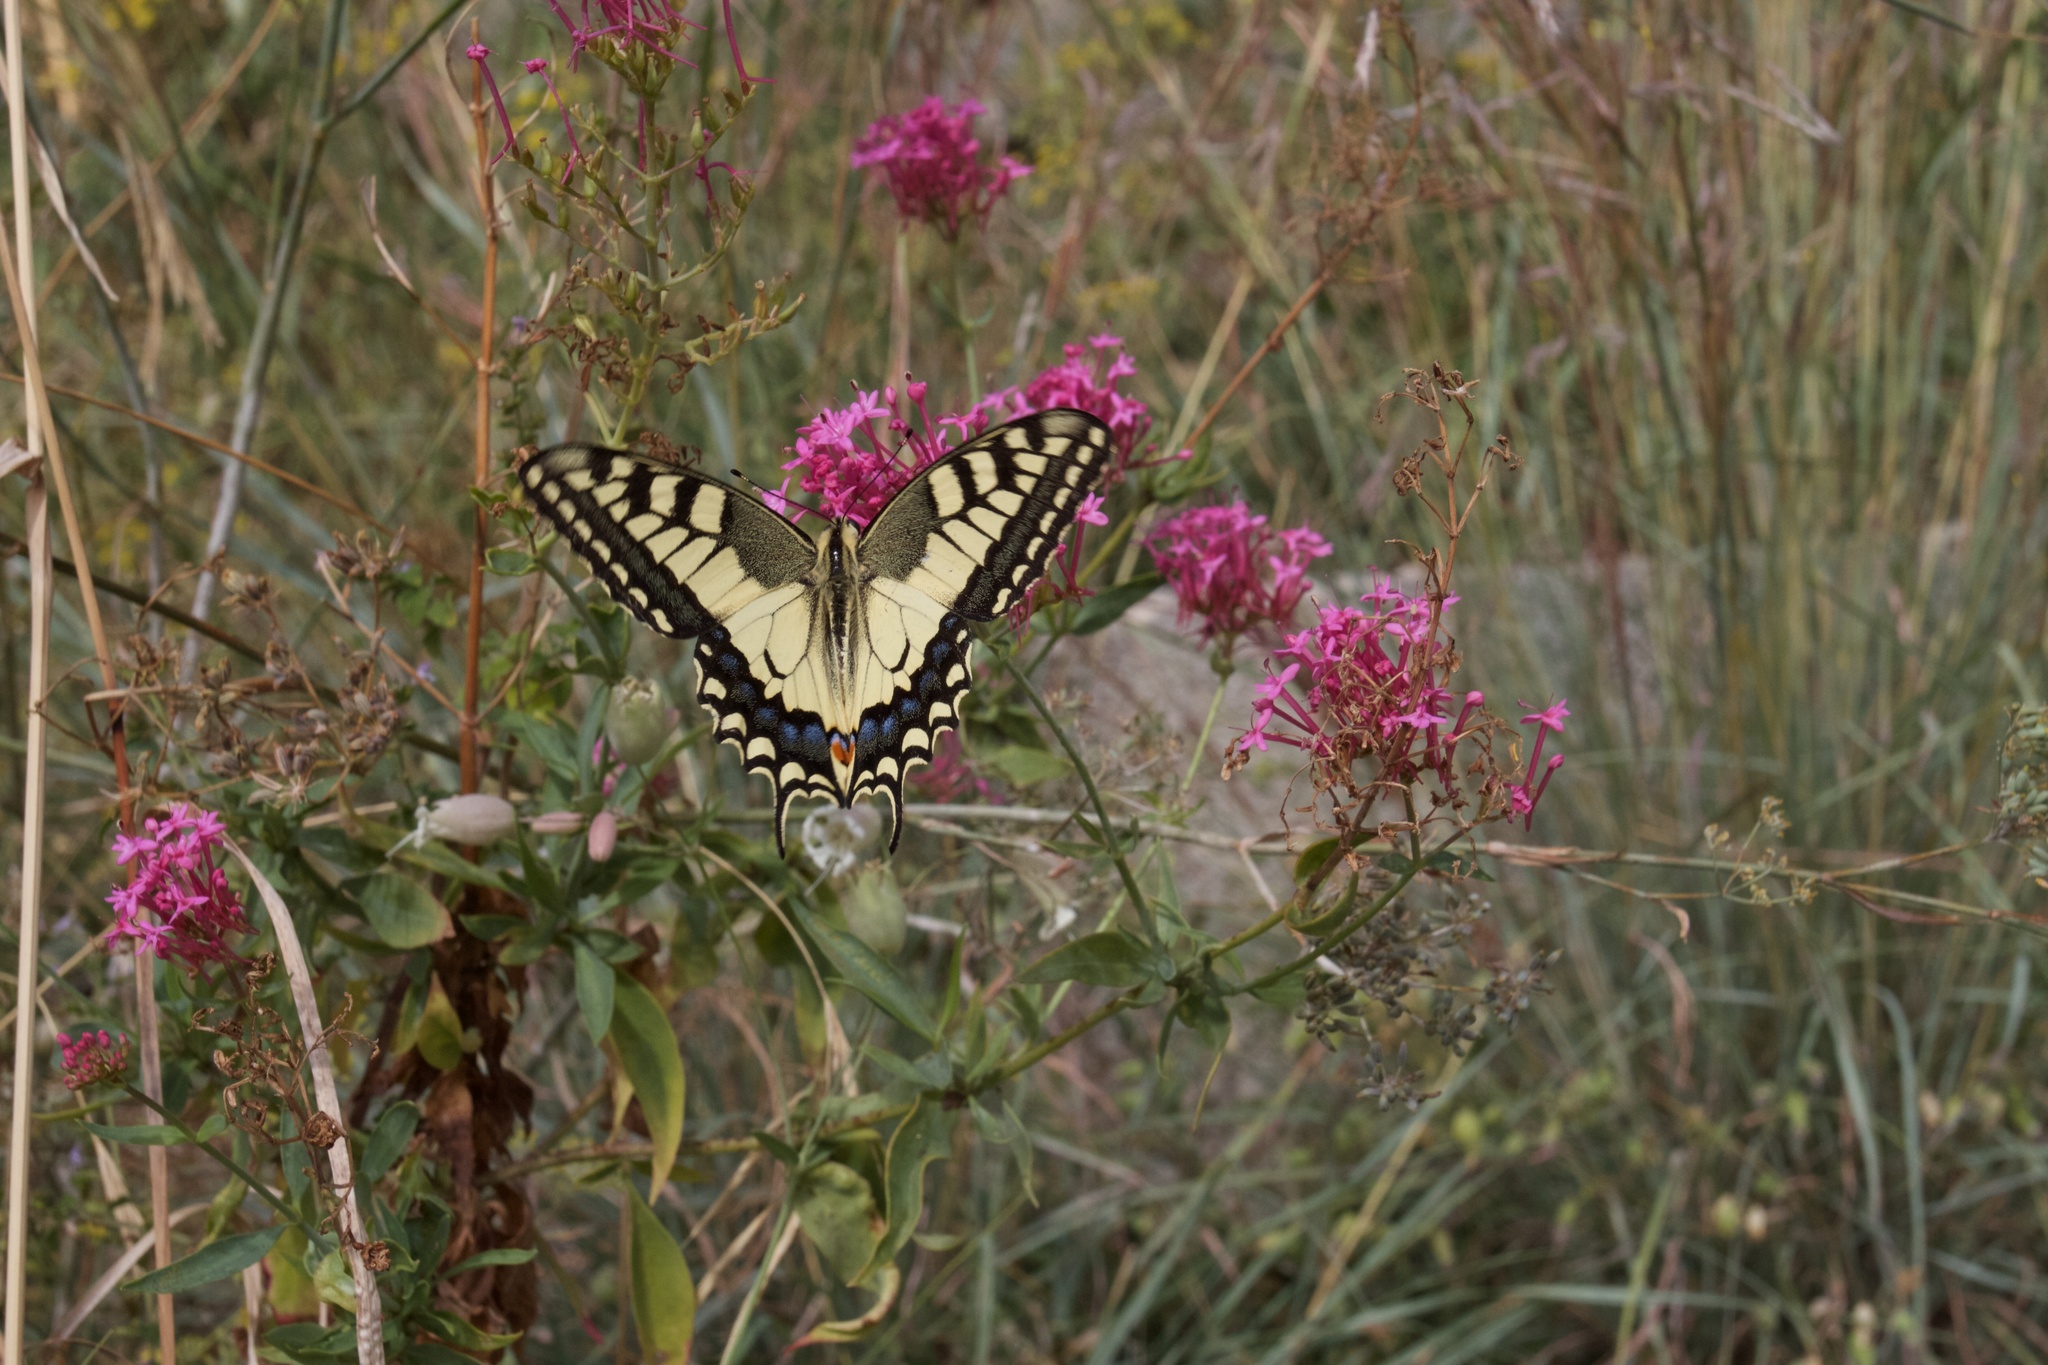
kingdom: Animalia
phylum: Arthropoda
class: Insecta
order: Lepidoptera
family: Papilionidae
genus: Papilio
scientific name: Papilio machaon
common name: Swallowtail
